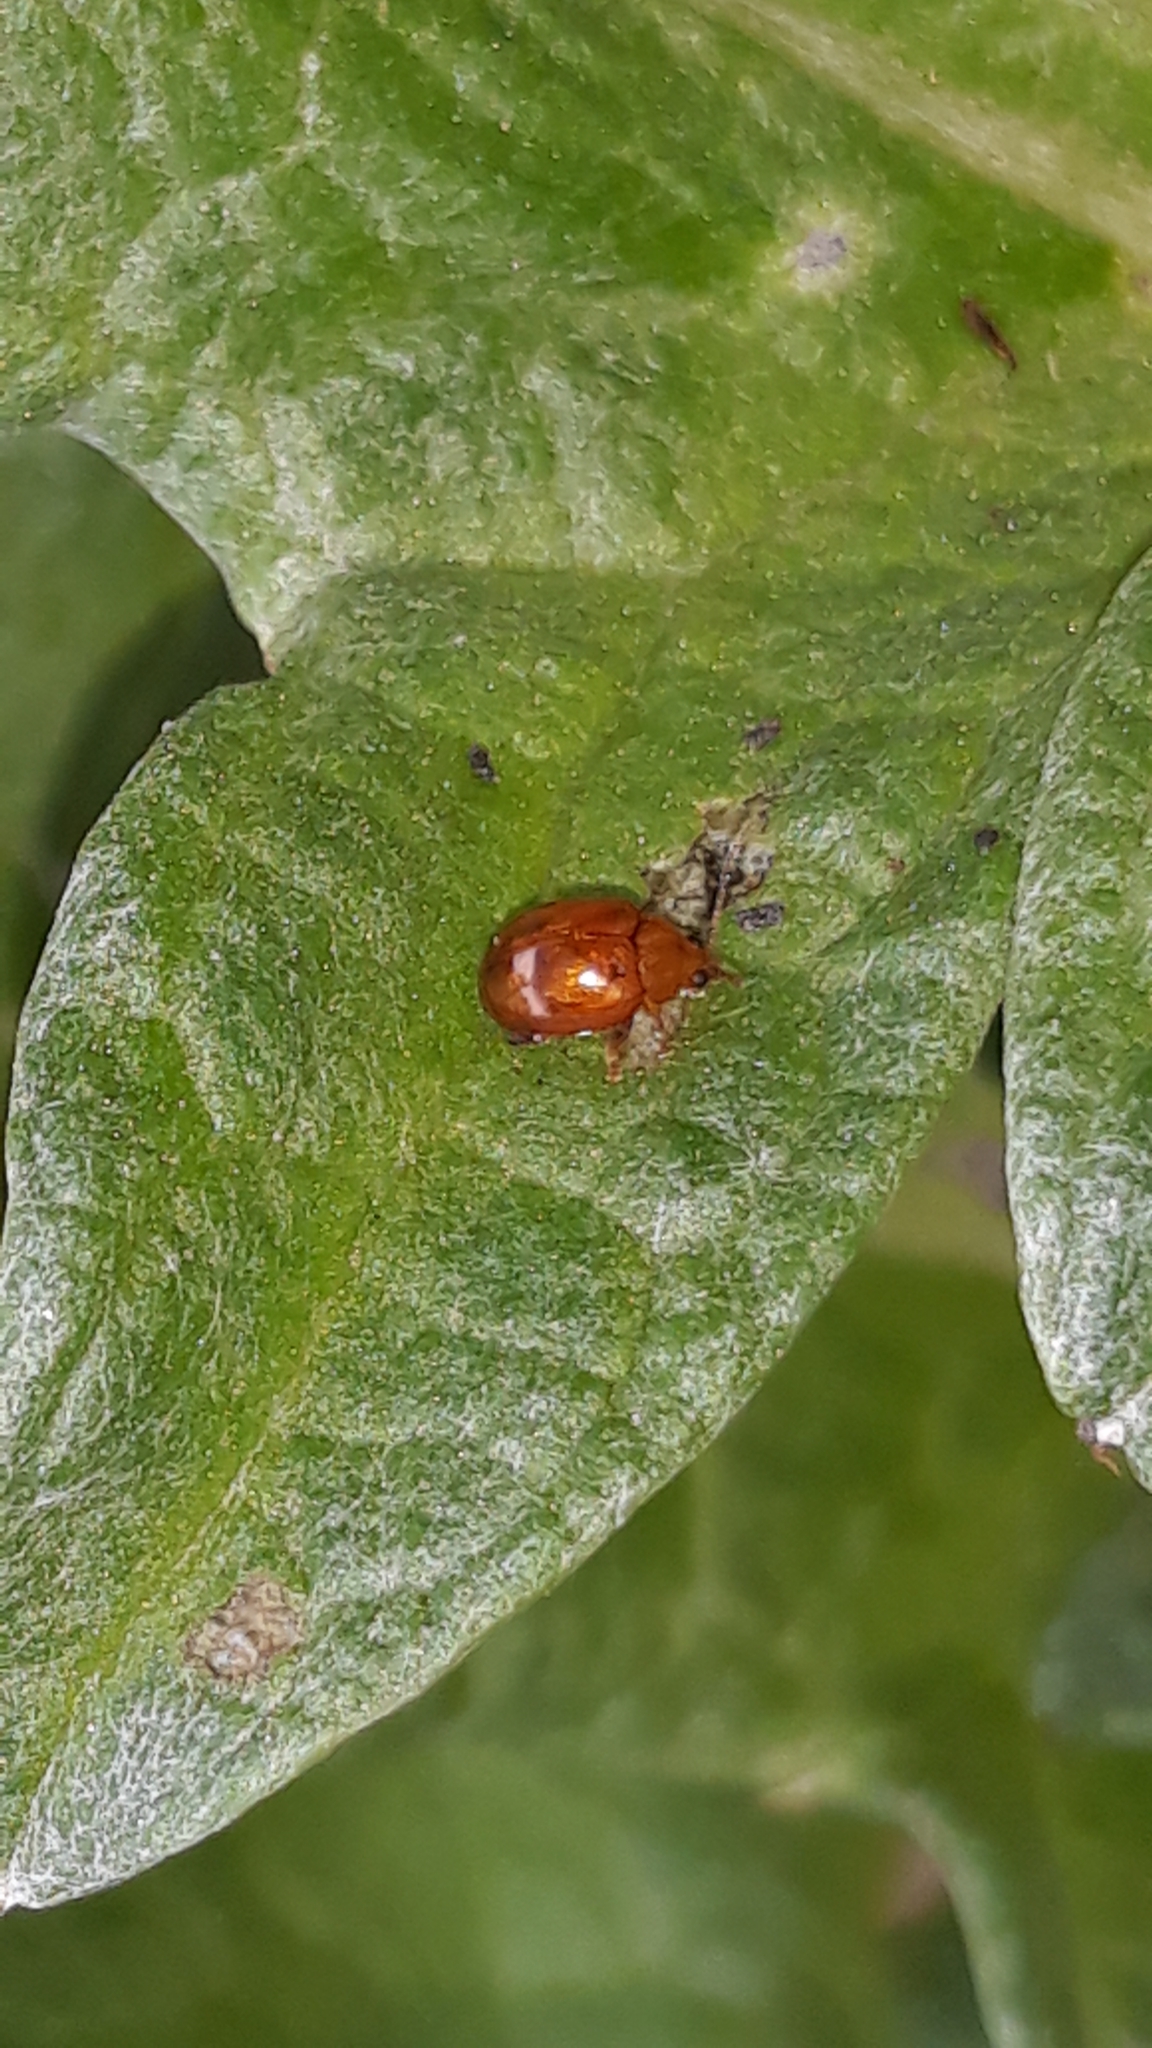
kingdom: Animalia
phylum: Arthropoda
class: Insecta
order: Coleoptera
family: Chrysomelidae
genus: Pistosia
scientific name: Pistosia testacea
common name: Leaf beetle
